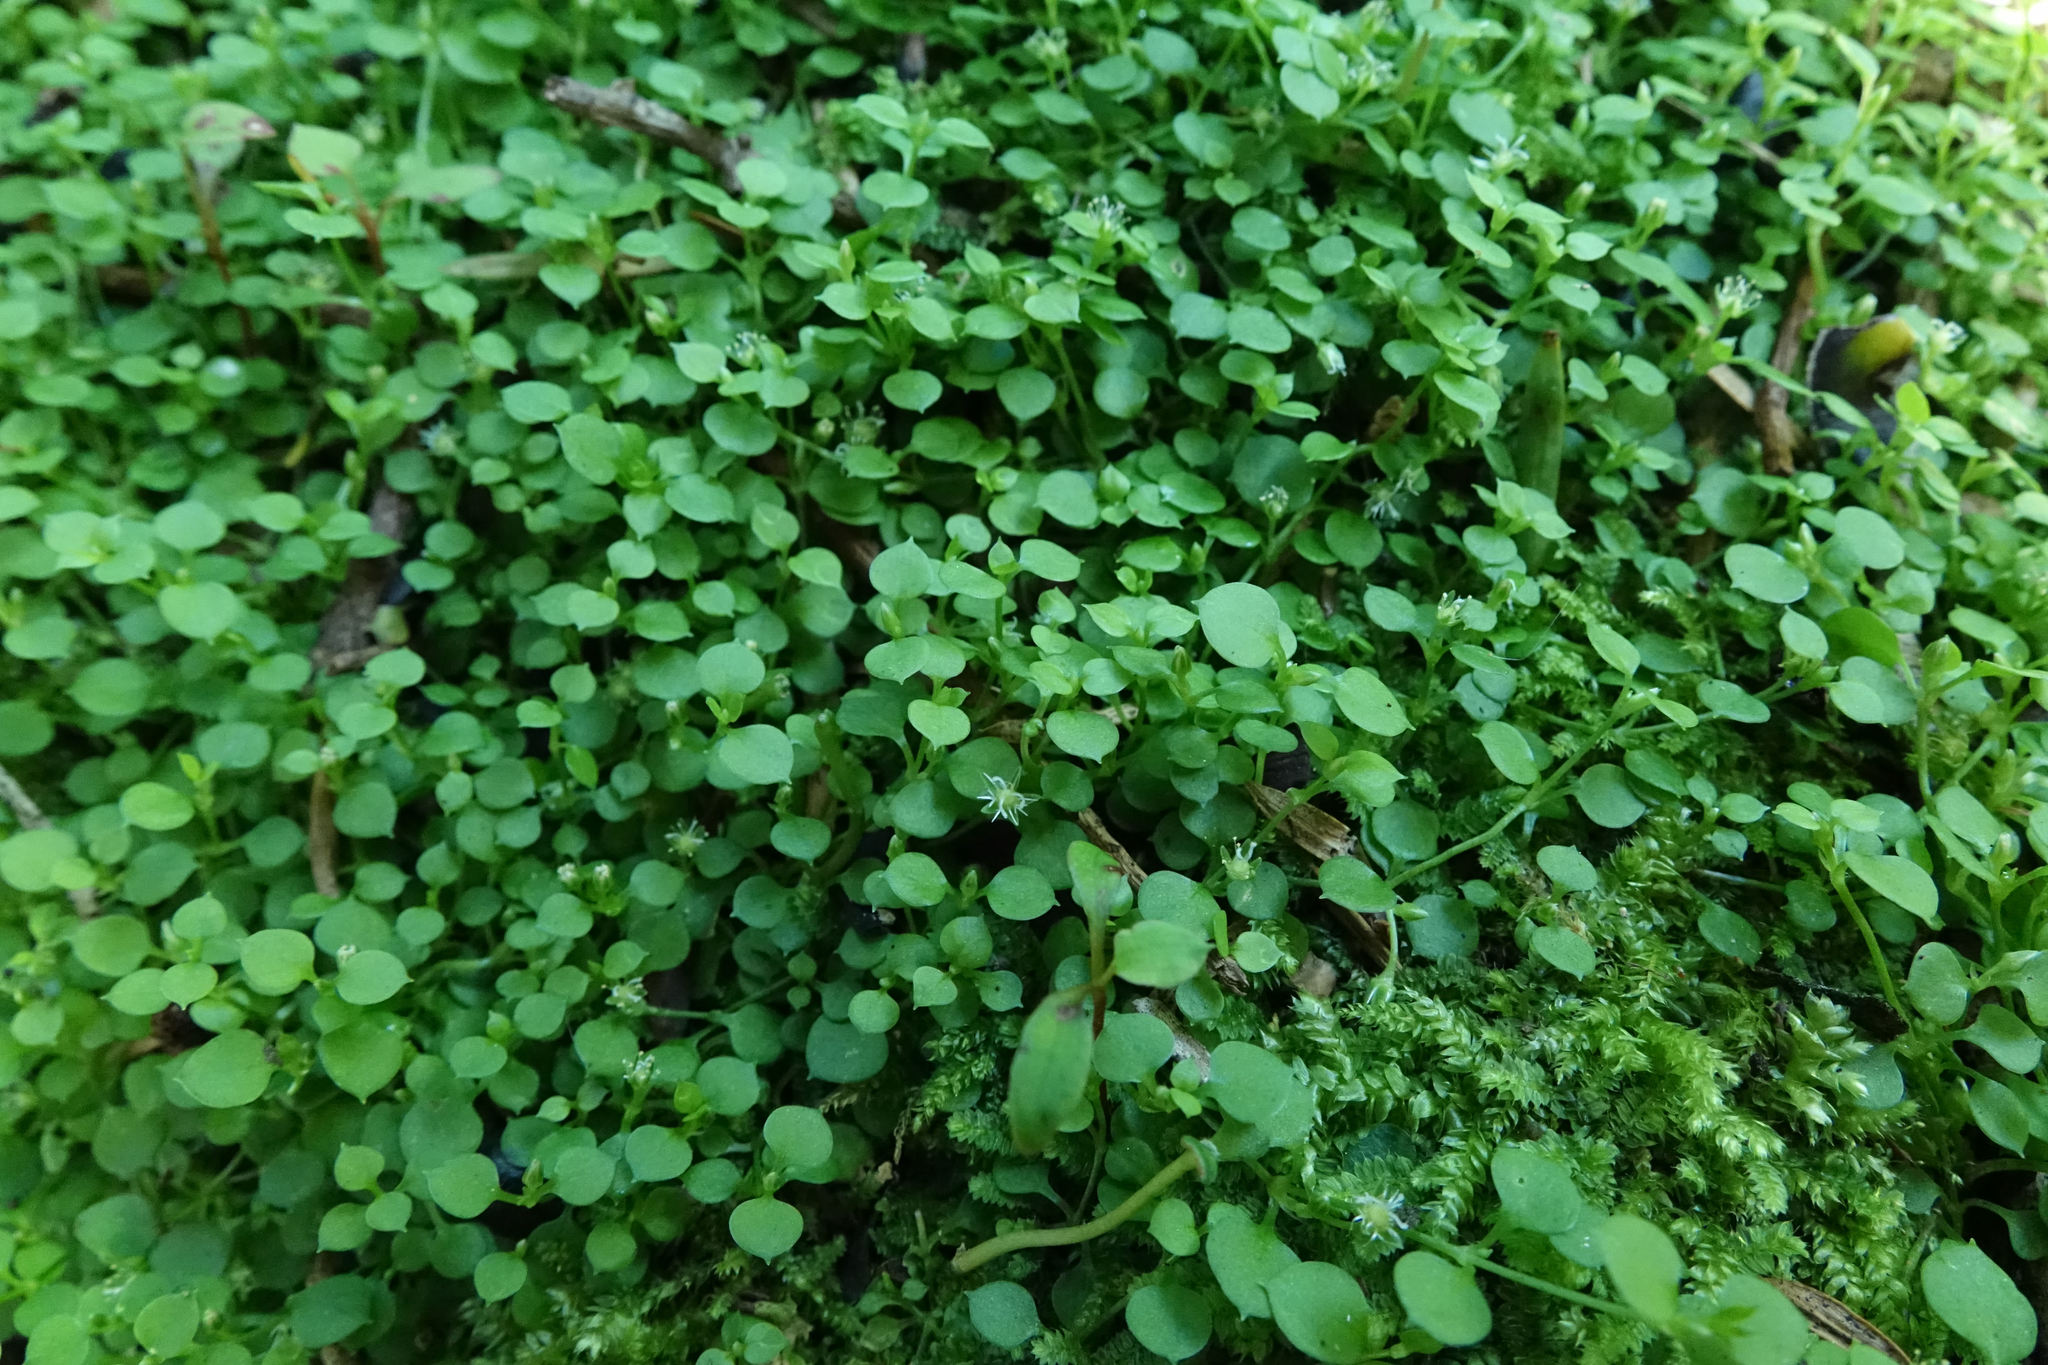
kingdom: Plantae
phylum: Tracheophyta
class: Magnoliopsida
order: Caryophyllales
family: Caryophyllaceae
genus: Stellaria
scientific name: Stellaria parviflora
